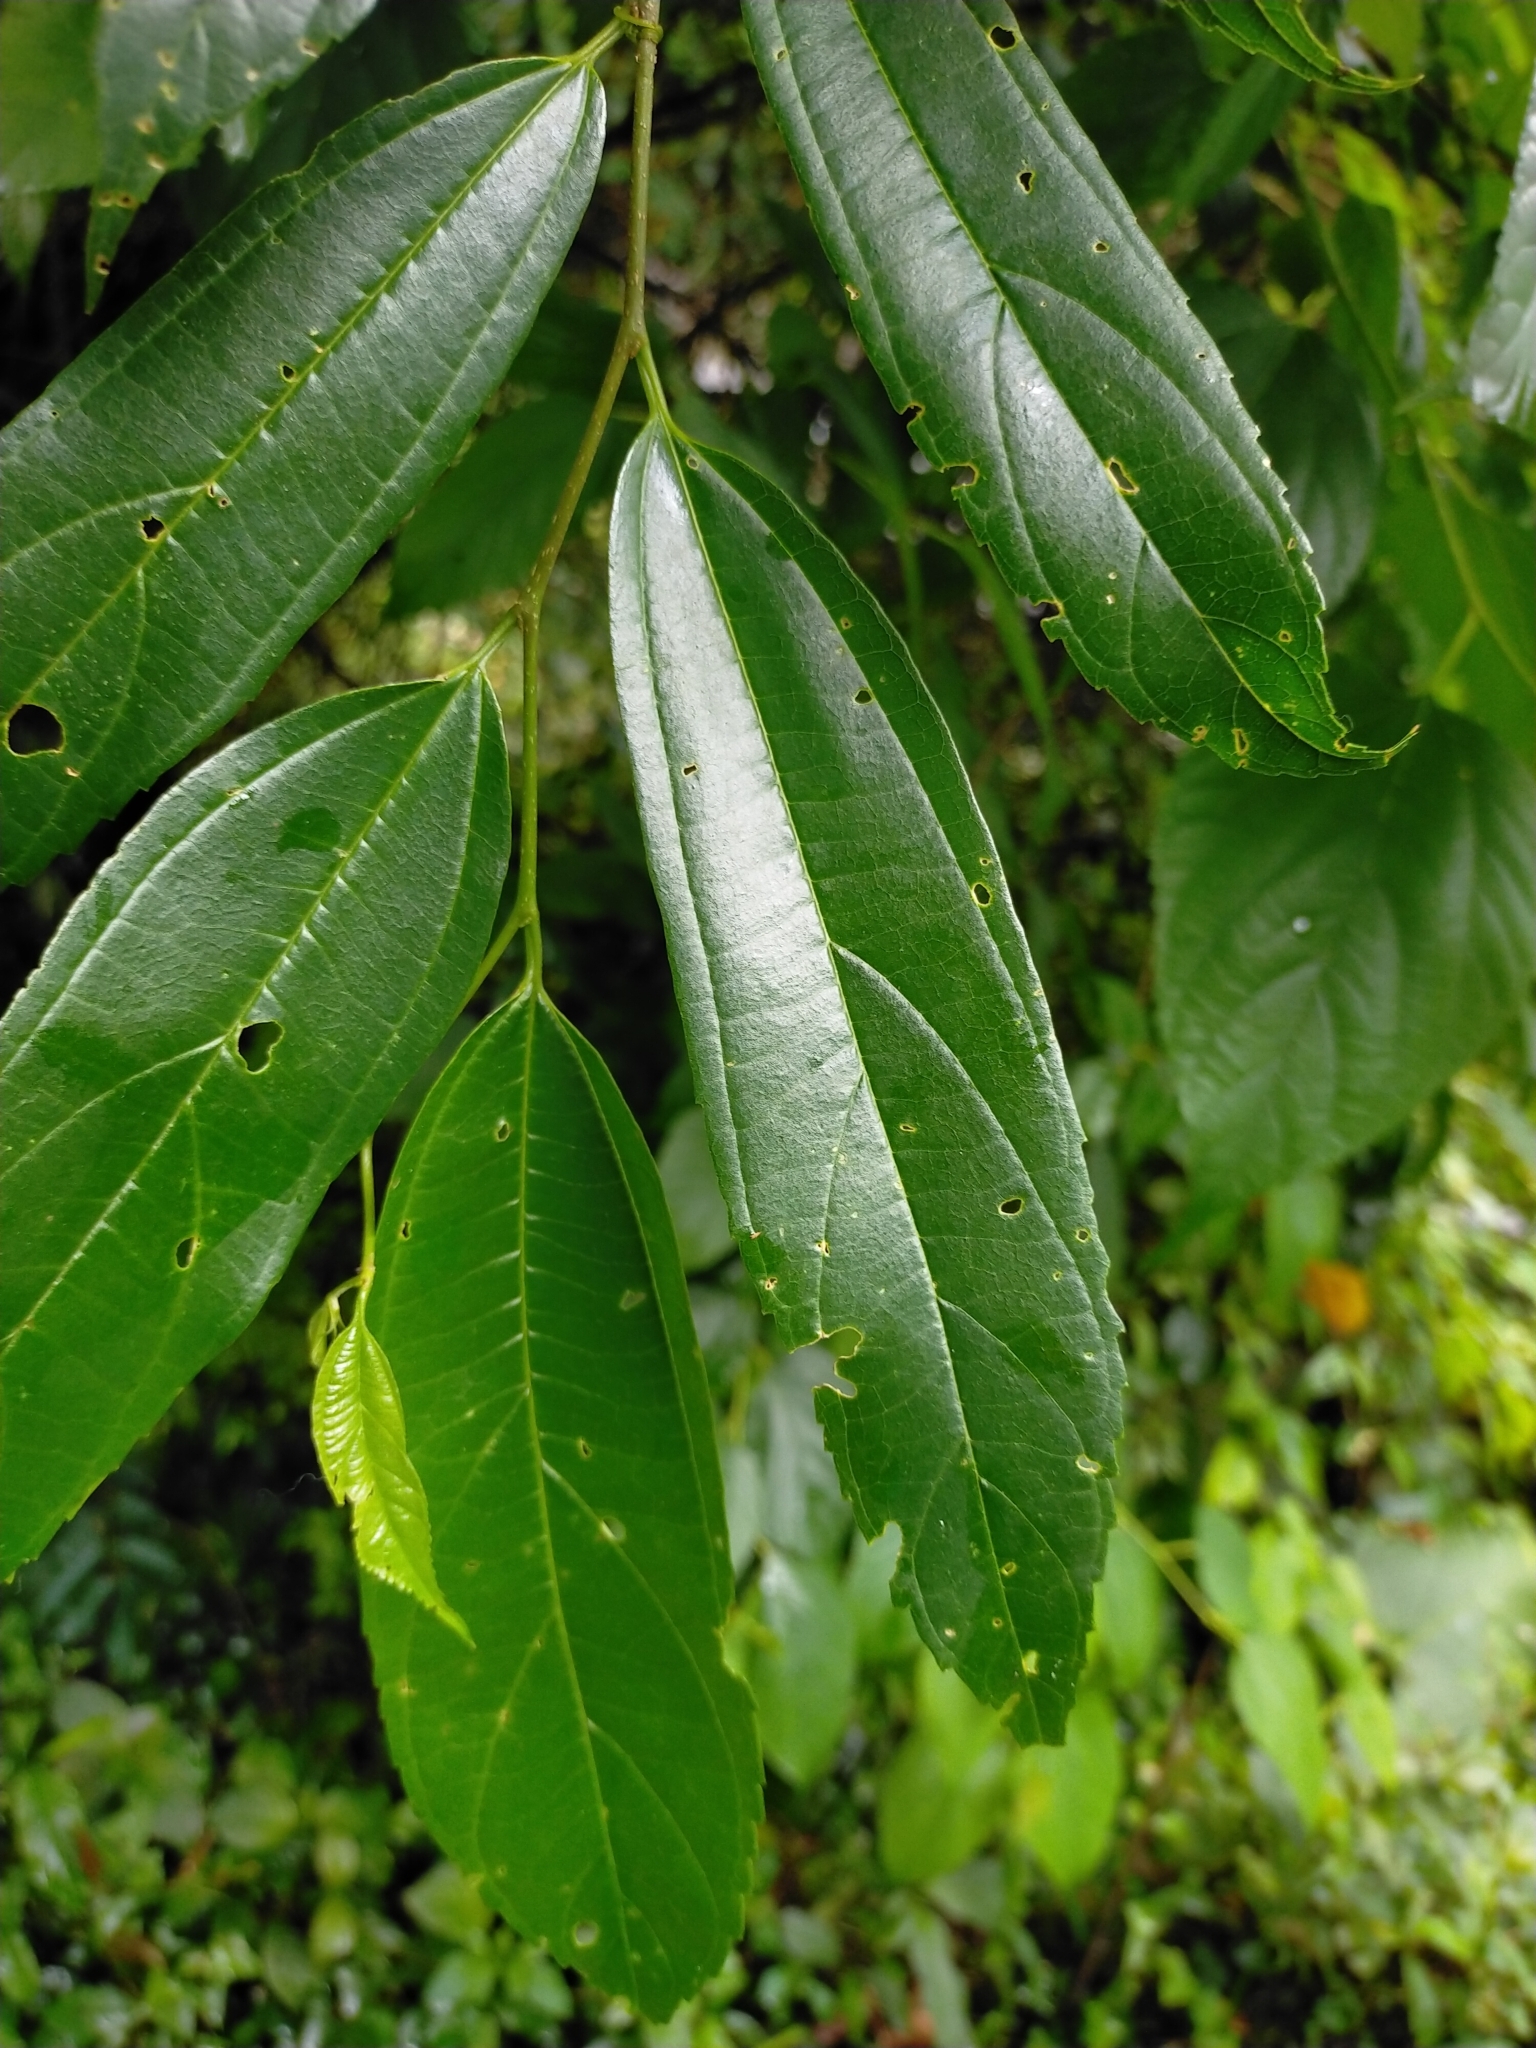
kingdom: Plantae
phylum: Tracheophyta
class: Magnoliopsida
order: Rosales
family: Cannabaceae
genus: Celtis
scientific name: Celtis tetrandra
